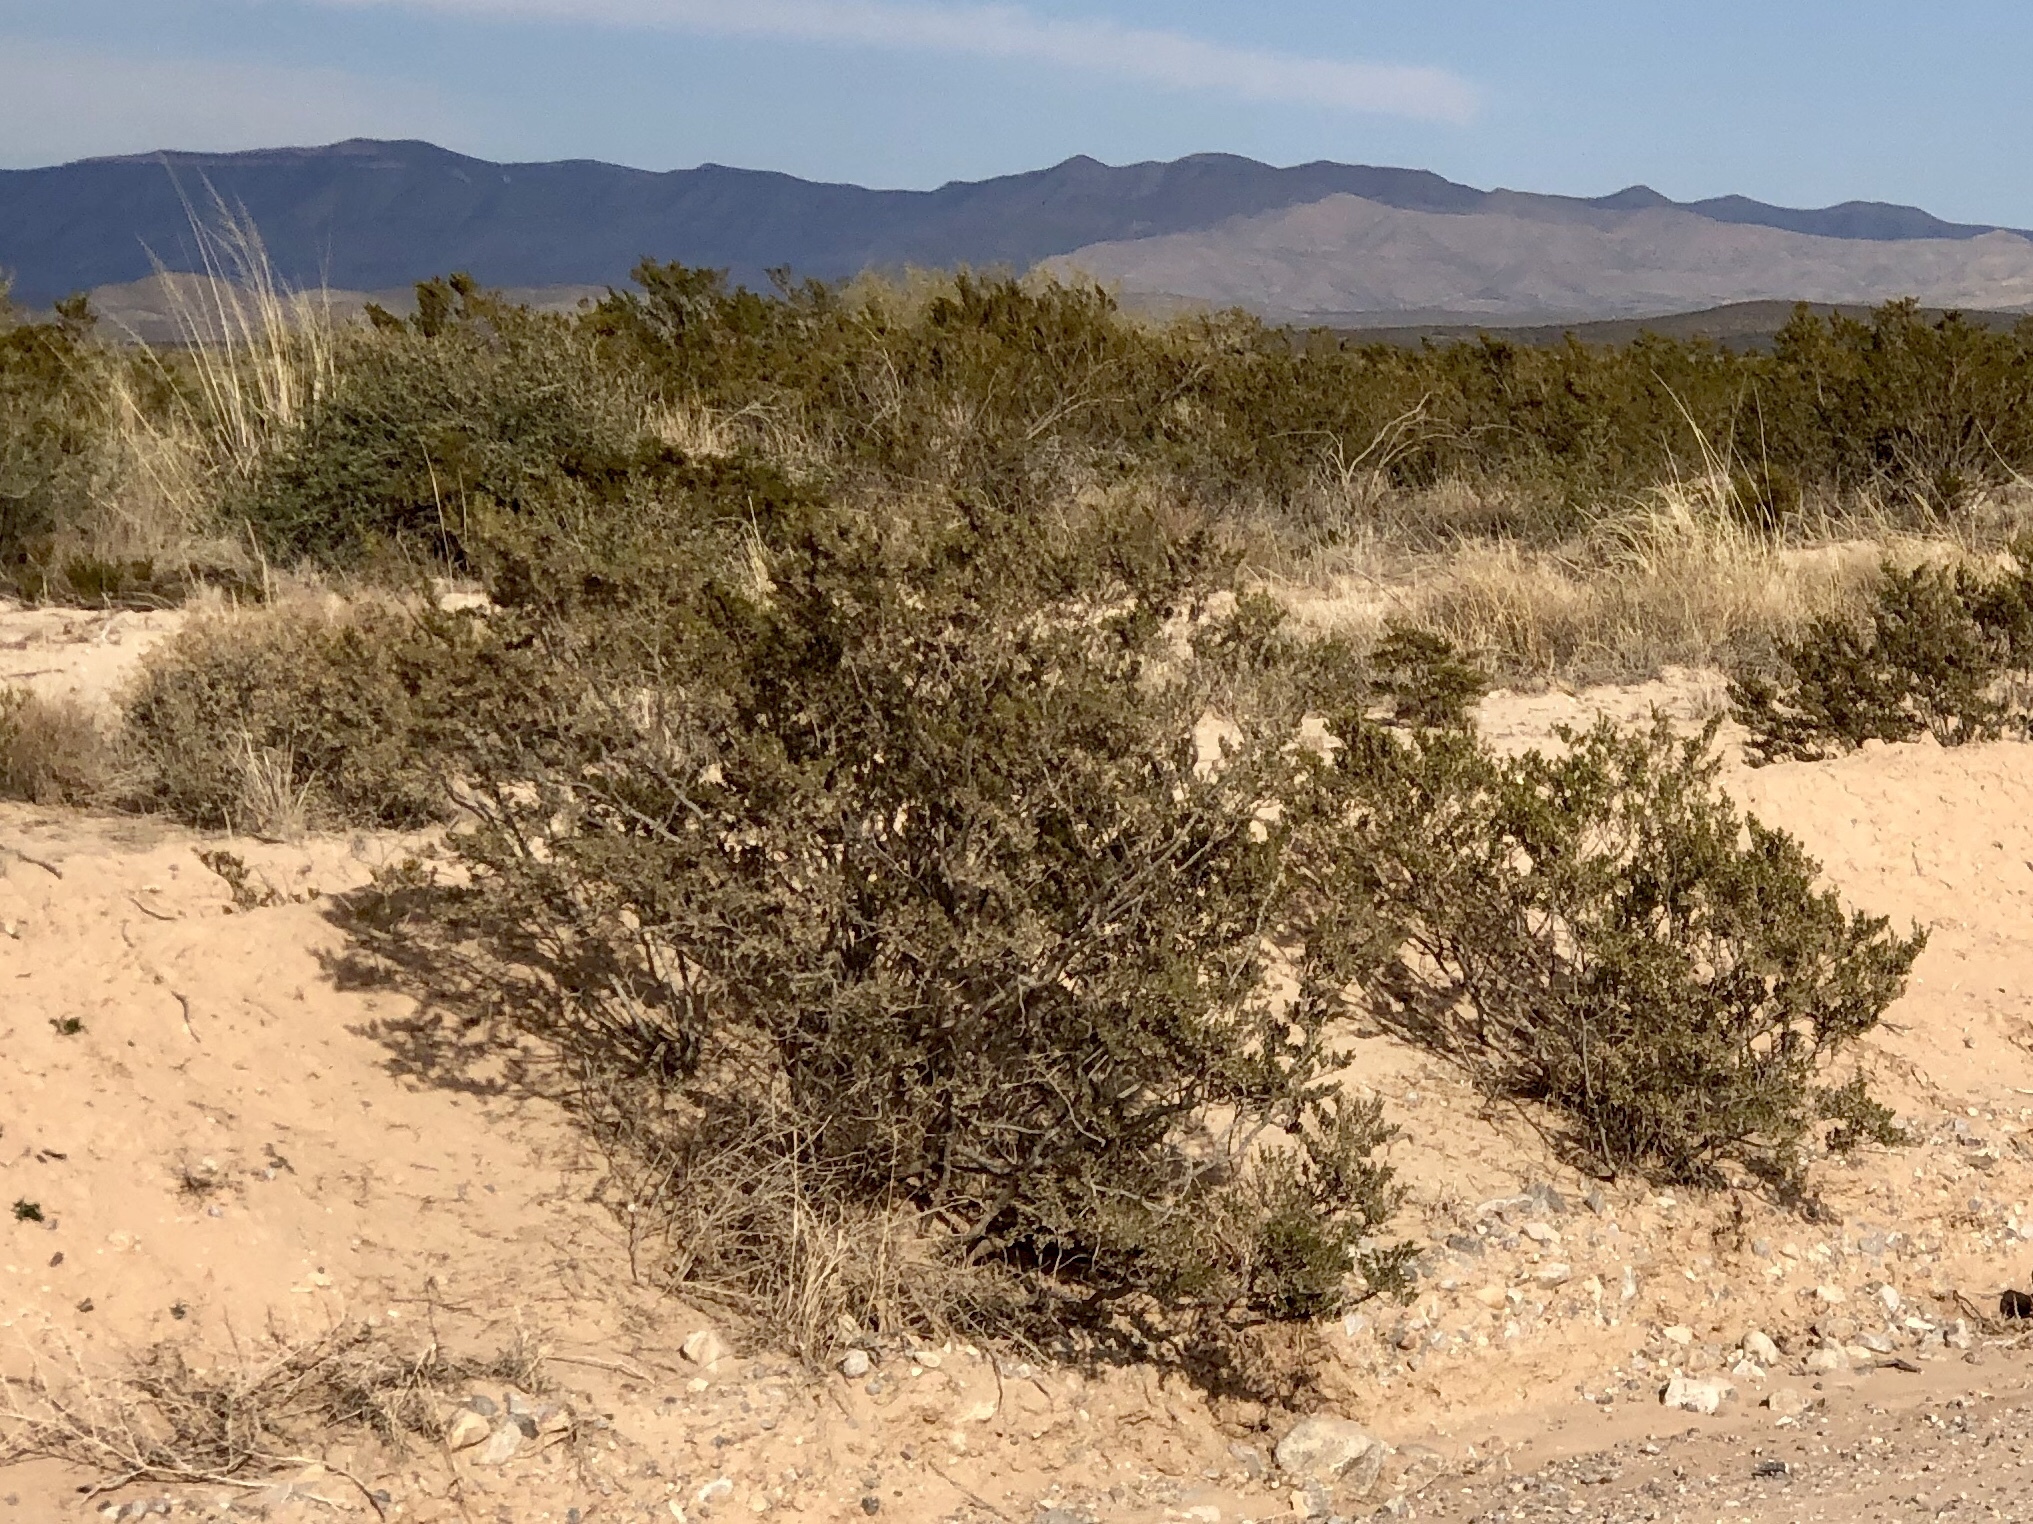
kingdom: Plantae
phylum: Tracheophyta
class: Magnoliopsida
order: Zygophyllales
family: Zygophyllaceae
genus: Larrea
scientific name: Larrea tridentata
